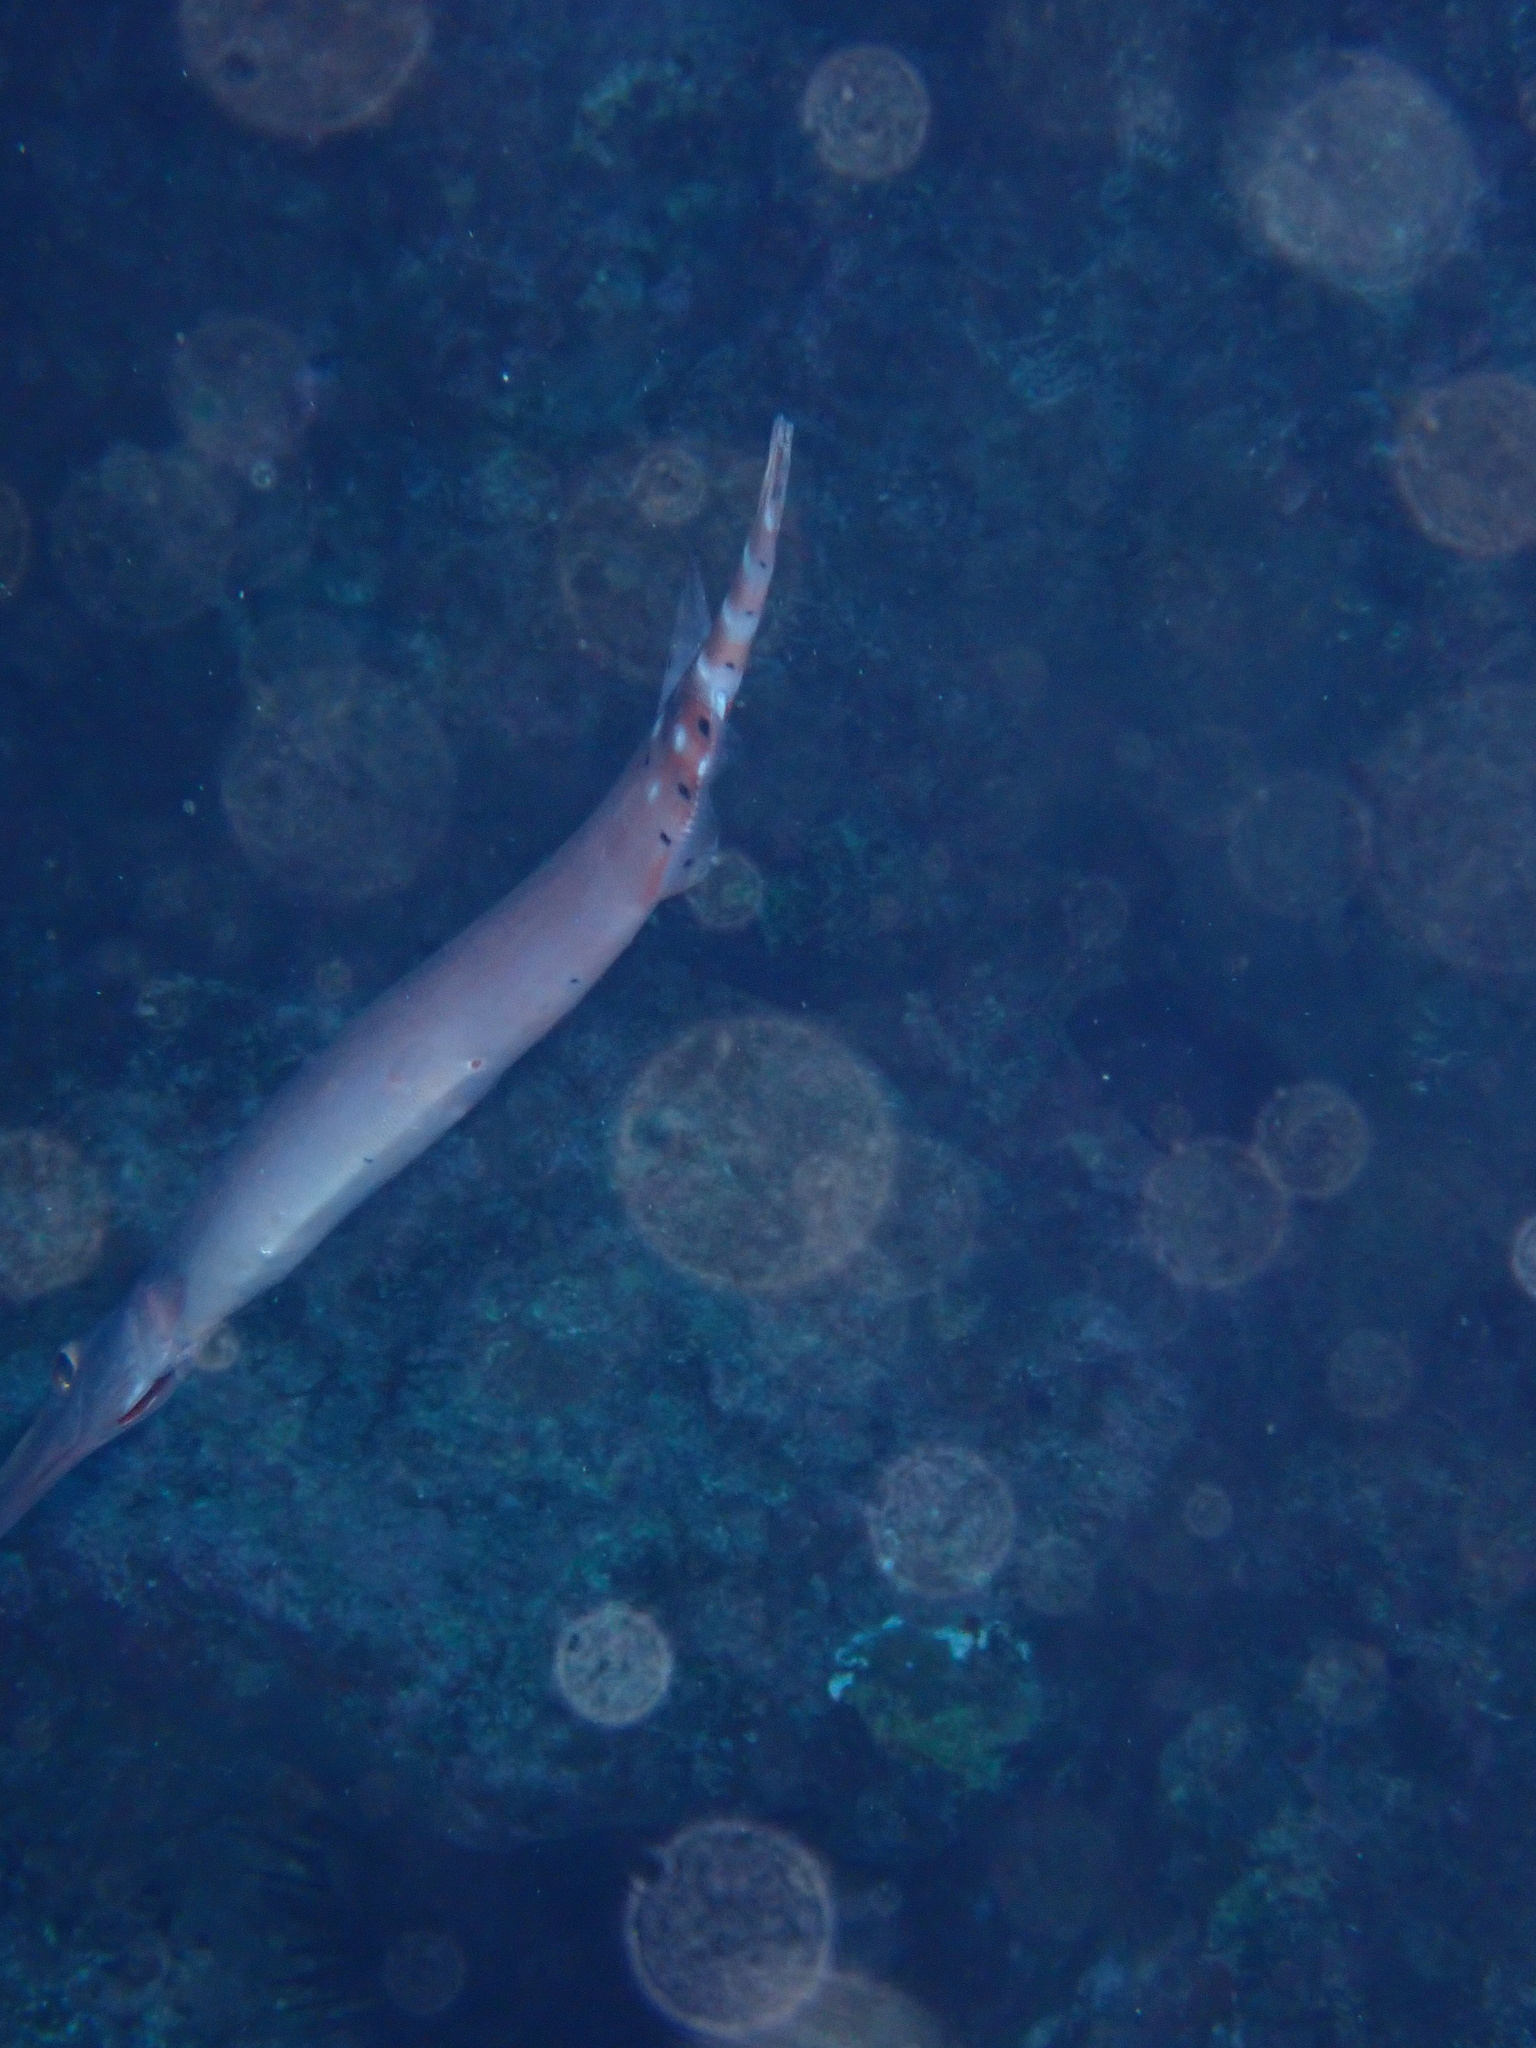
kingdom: Animalia
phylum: Chordata
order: Syngnathiformes
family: Aulostomidae
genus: Aulostomus
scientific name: Aulostomus strigosus
